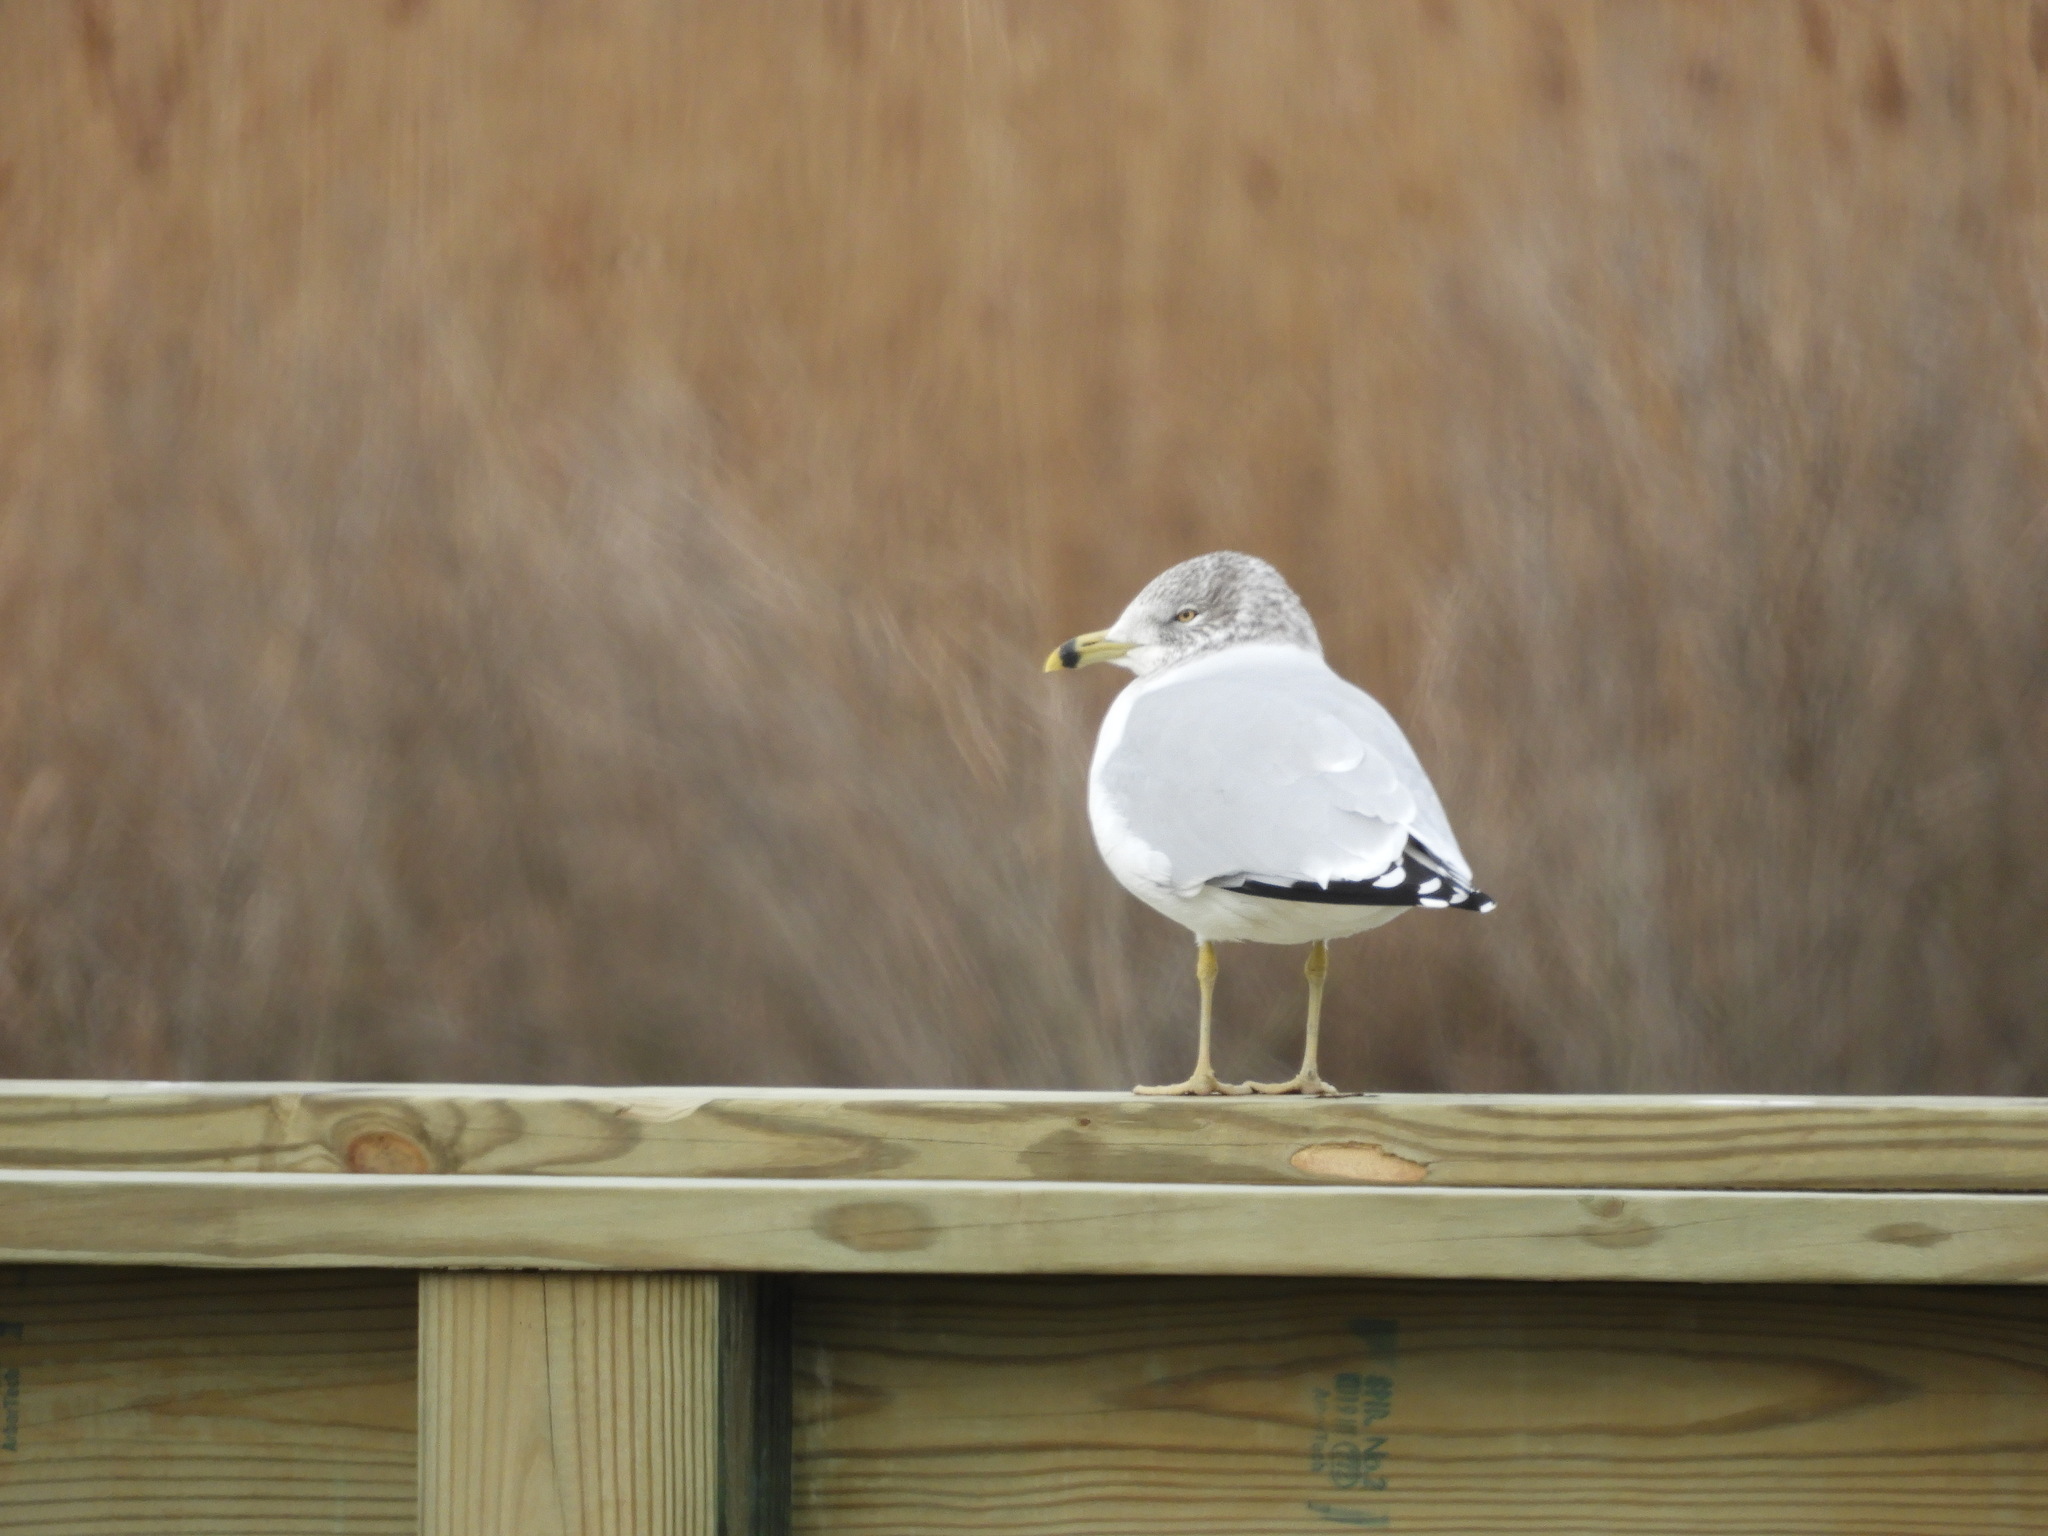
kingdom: Animalia
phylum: Chordata
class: Aves
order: Charadriiformes
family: Laridae
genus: Larus
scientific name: Larus delawarensis
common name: Ring-billed gull
